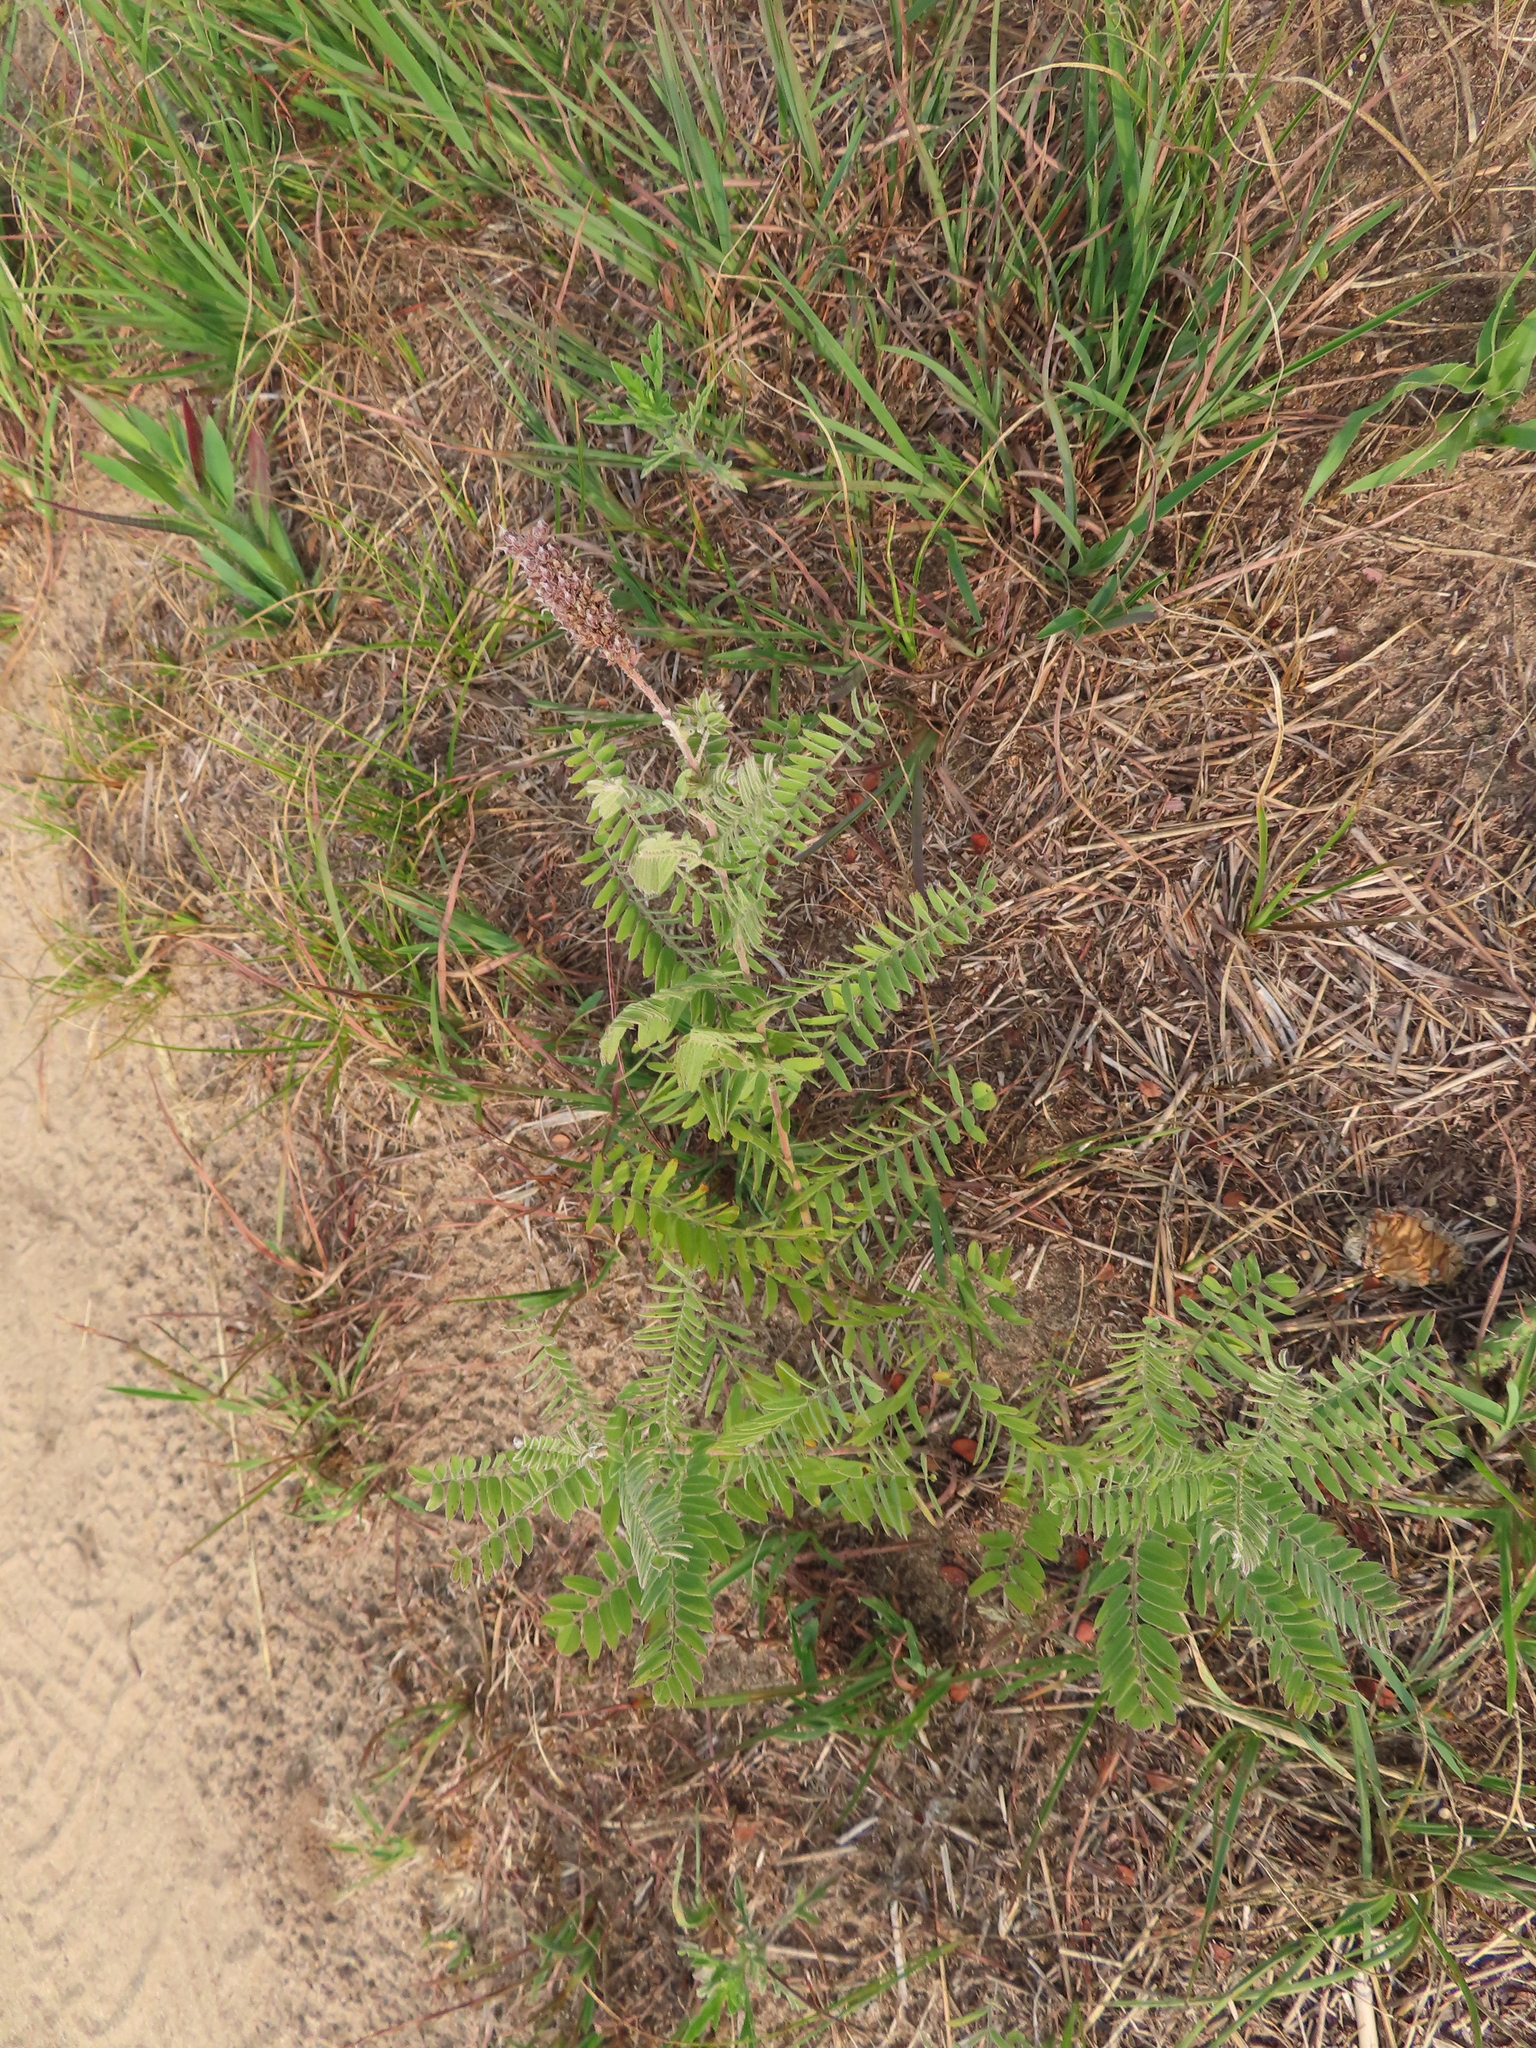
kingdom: Plantae
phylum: Tracheophyta
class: Magnoliopsida
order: Fabales
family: Fabaceae
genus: Amorpha
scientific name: Amorpha canescens
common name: Leadplant
